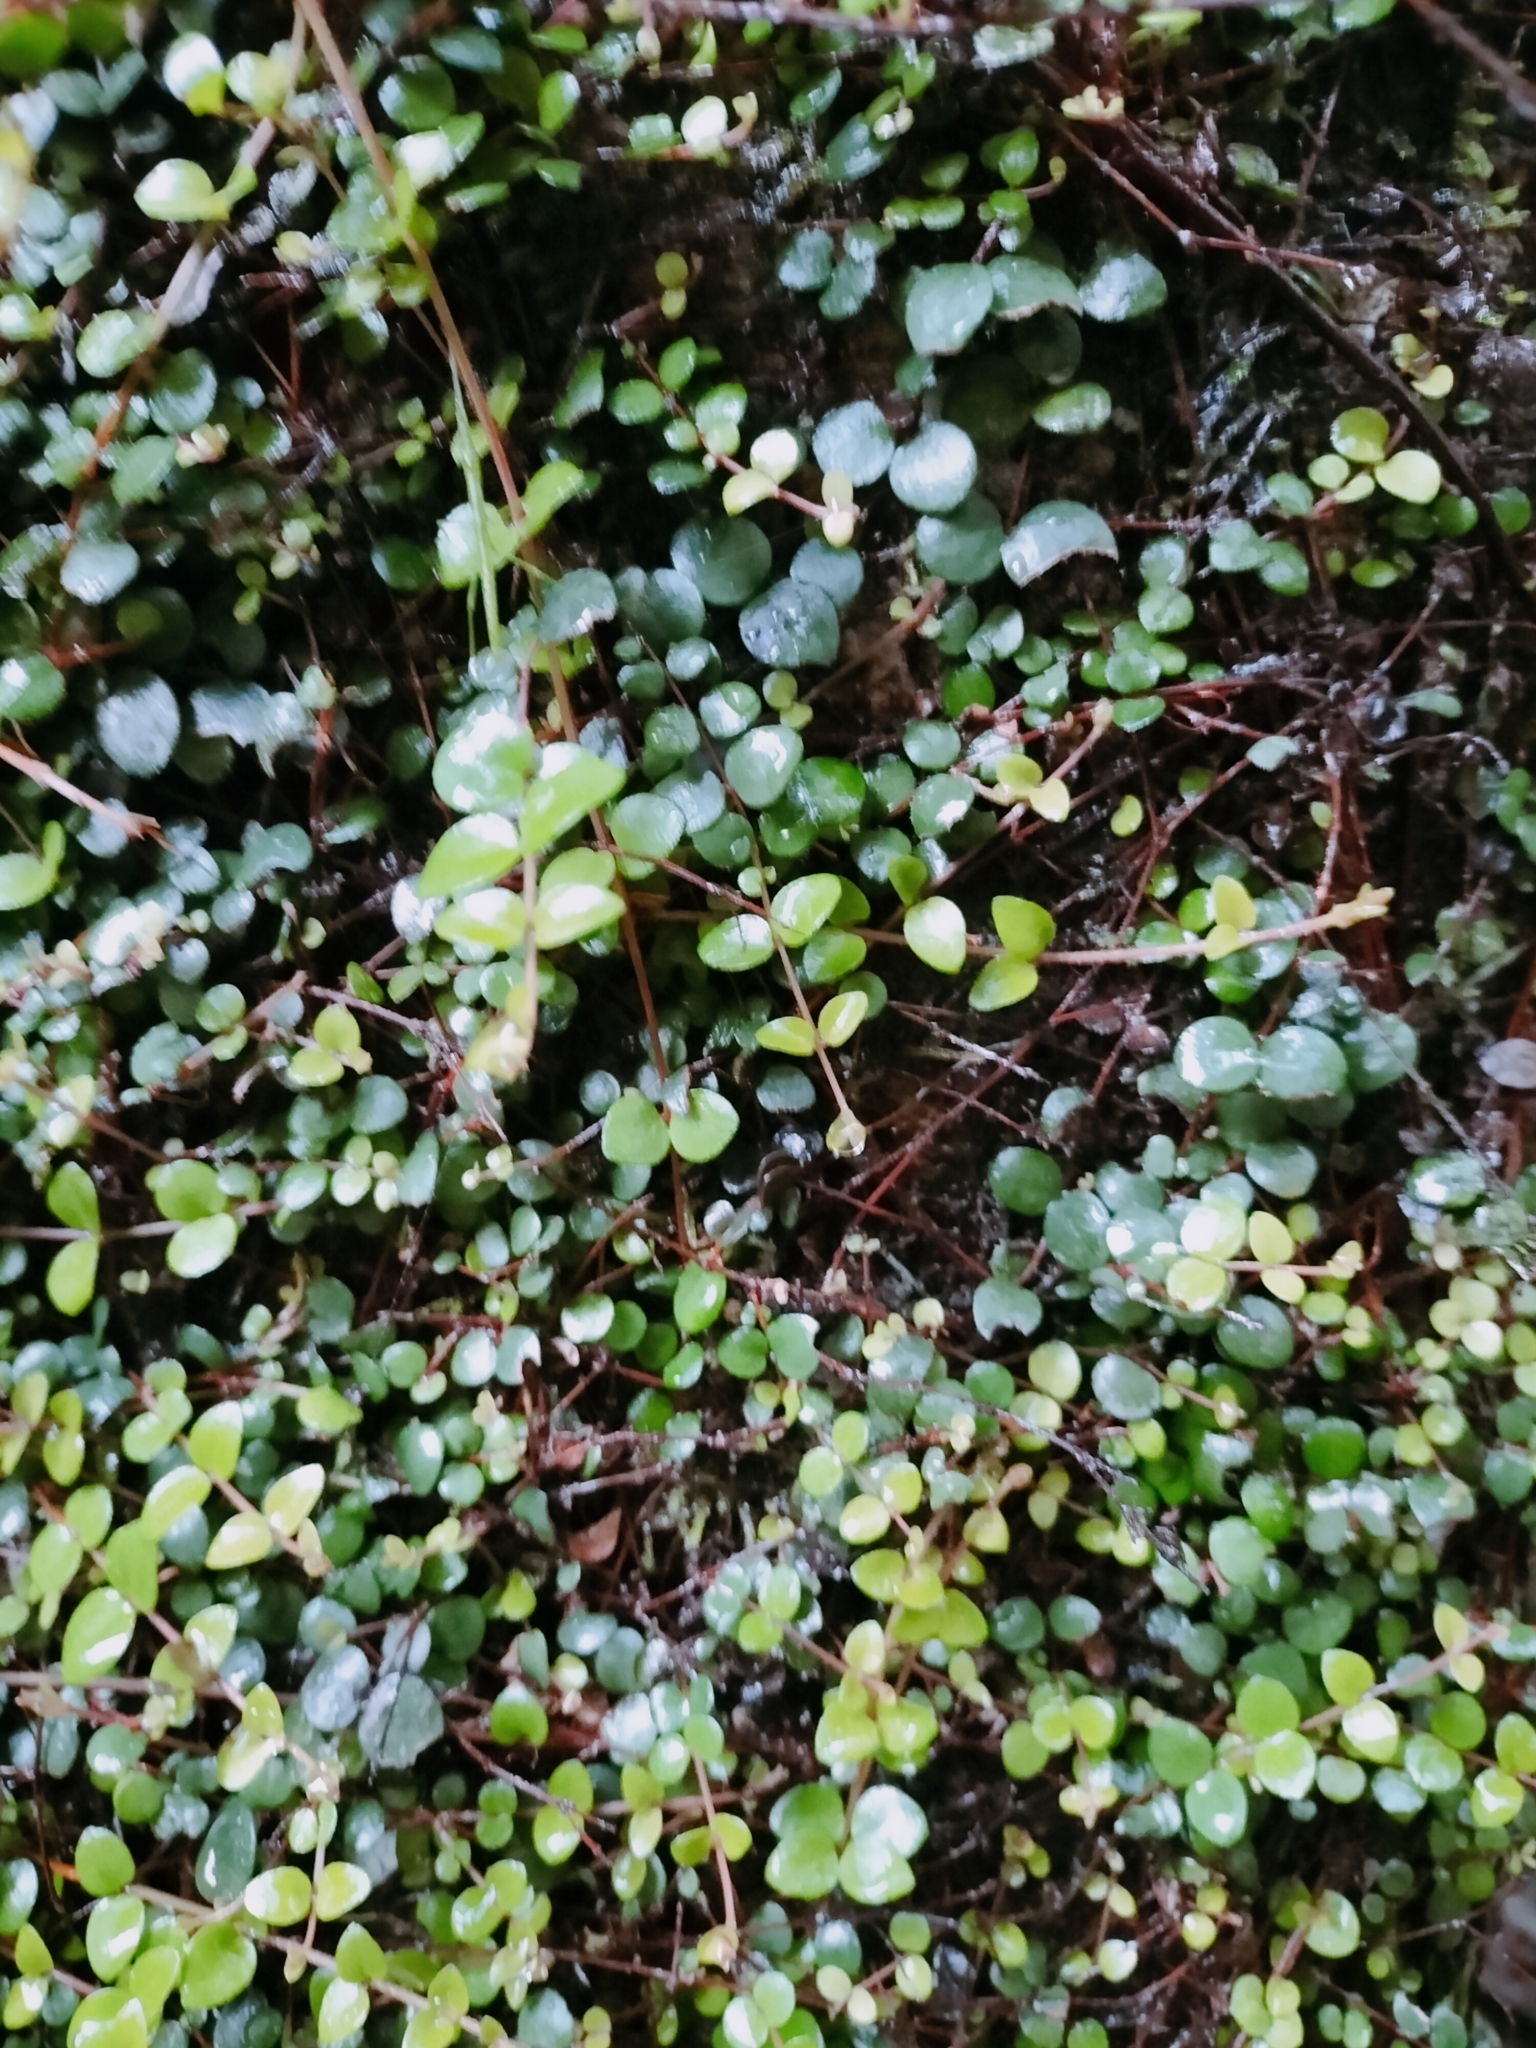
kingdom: Plantae
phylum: Tracheophyta
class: Magnoliopsida
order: Myrtales
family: Myrtaceae
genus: Metrosideros
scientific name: Metrosideros perforata
